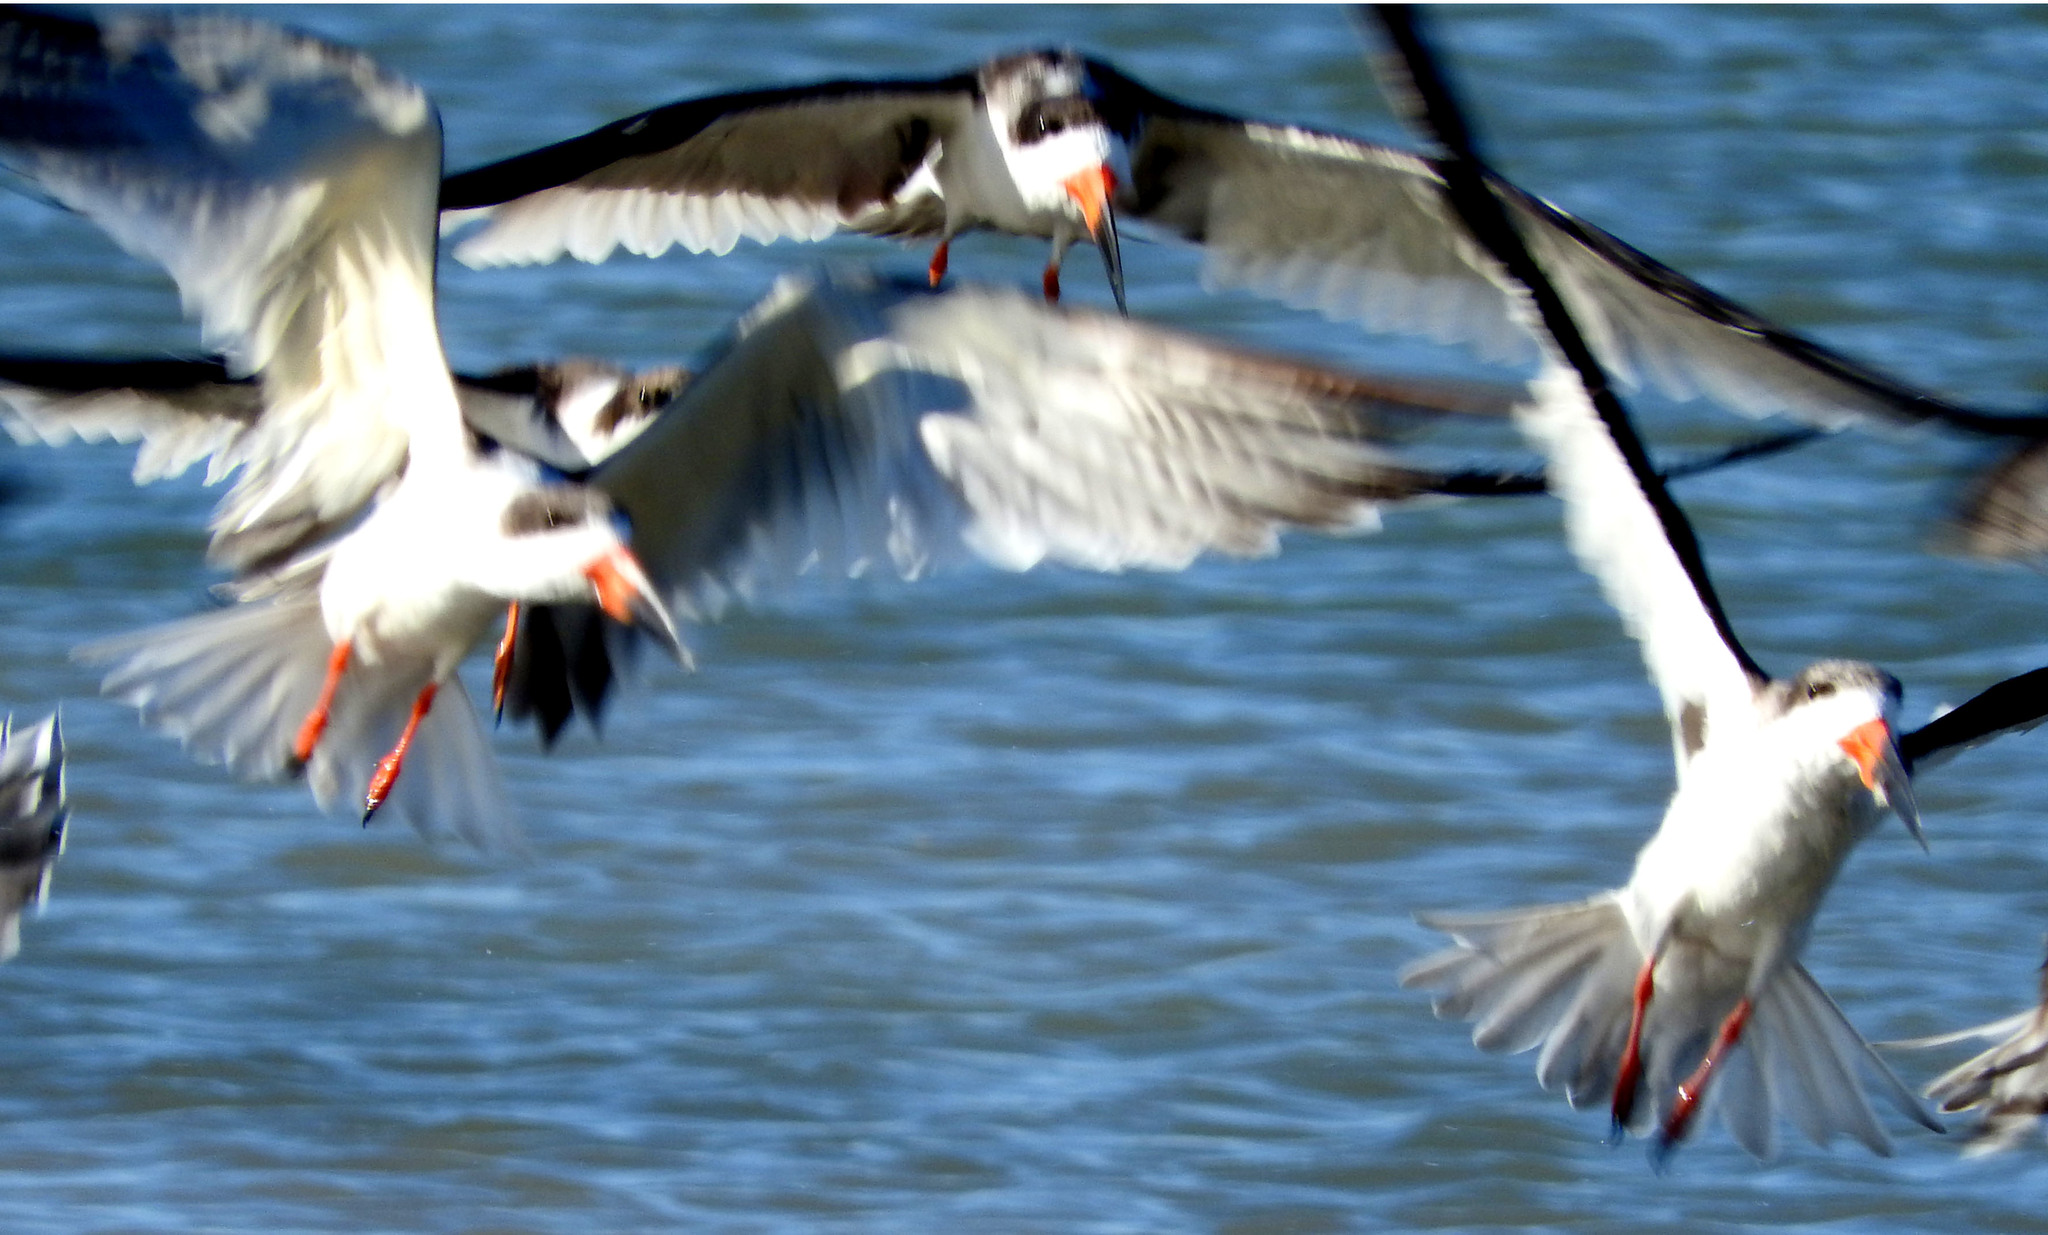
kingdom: Animalia
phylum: Chordata
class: Aves
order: Charadriiformes
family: Laridae
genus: Rynchops
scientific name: Rynchops niger
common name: Black skimmer
